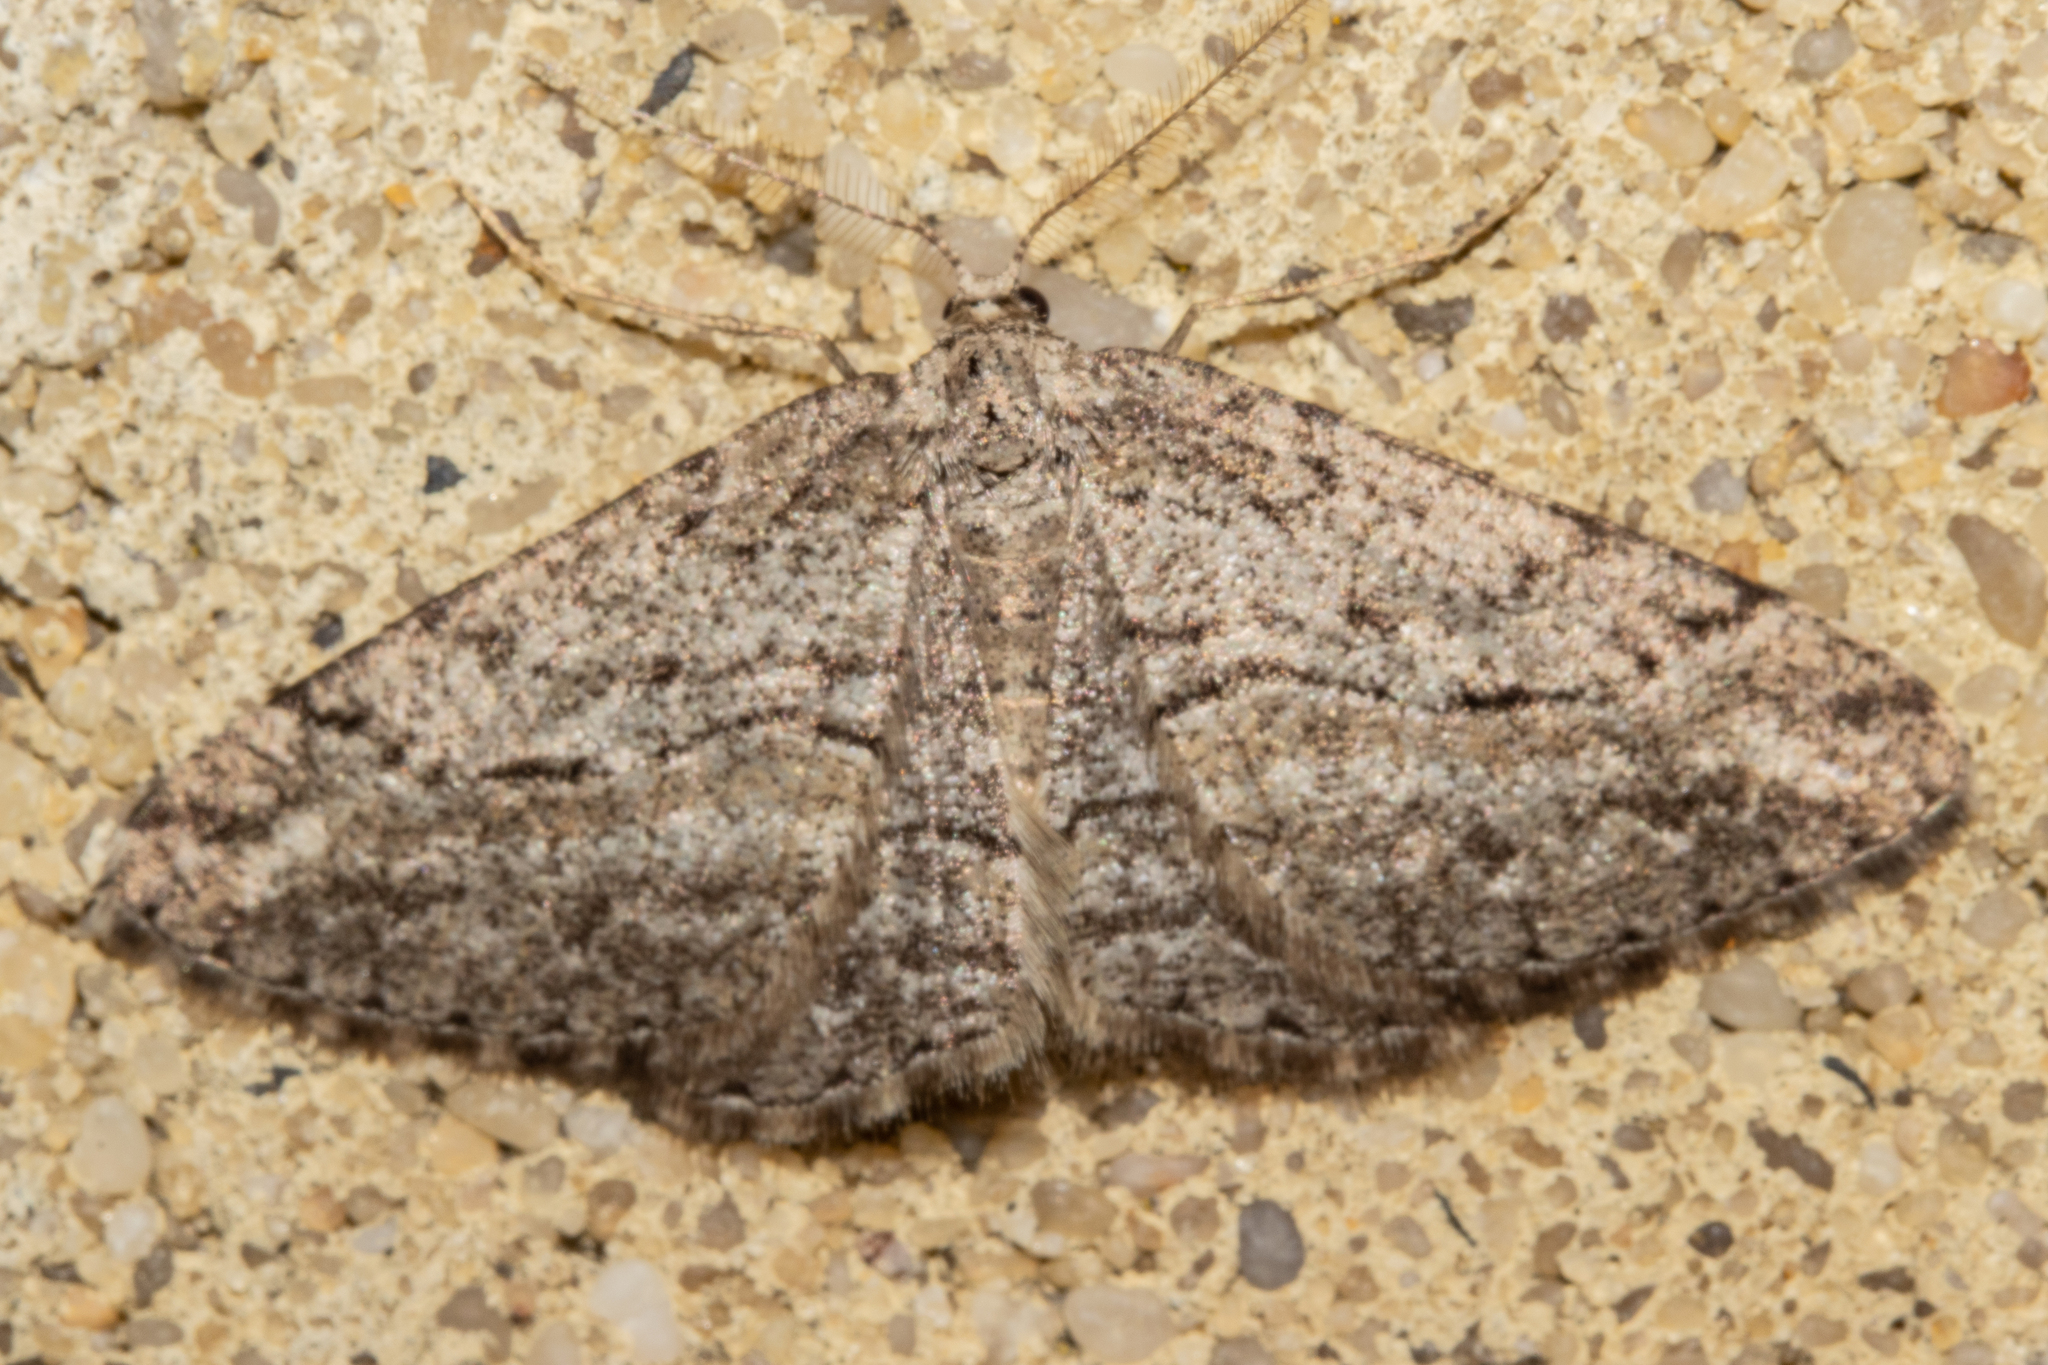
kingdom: Animalia
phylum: Arthropoda
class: Insecta
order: Lepidoptera
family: Geometridae
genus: Zermizinga
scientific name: Zermizinga indocilisaria
